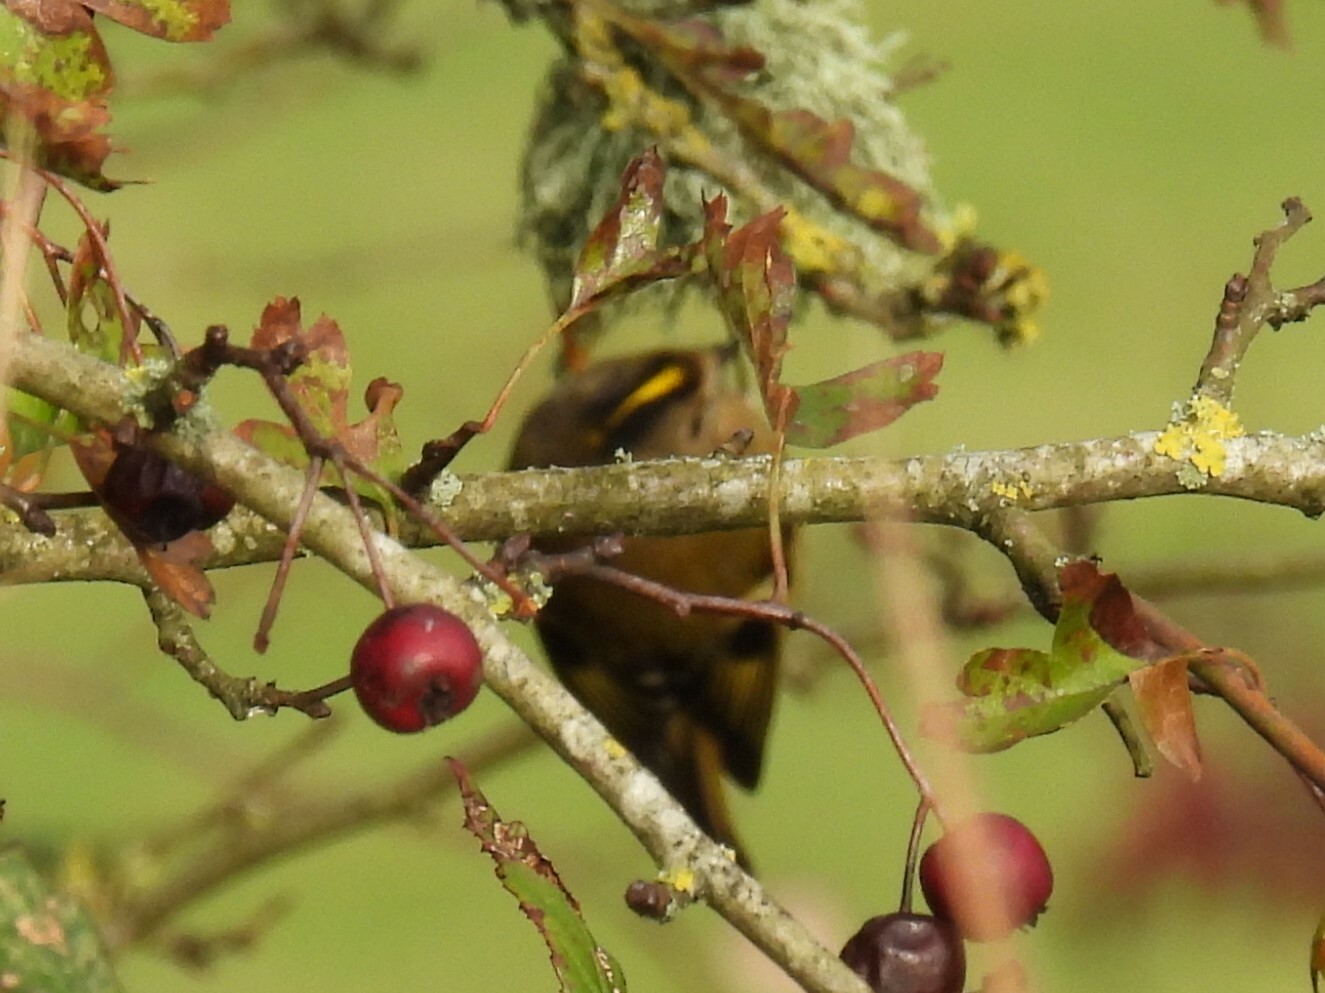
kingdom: Animalia
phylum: Chordata
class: Aves
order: Passeriformes
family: Regulidae
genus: Regulus
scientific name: Regulus regulus
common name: Goldcrest
